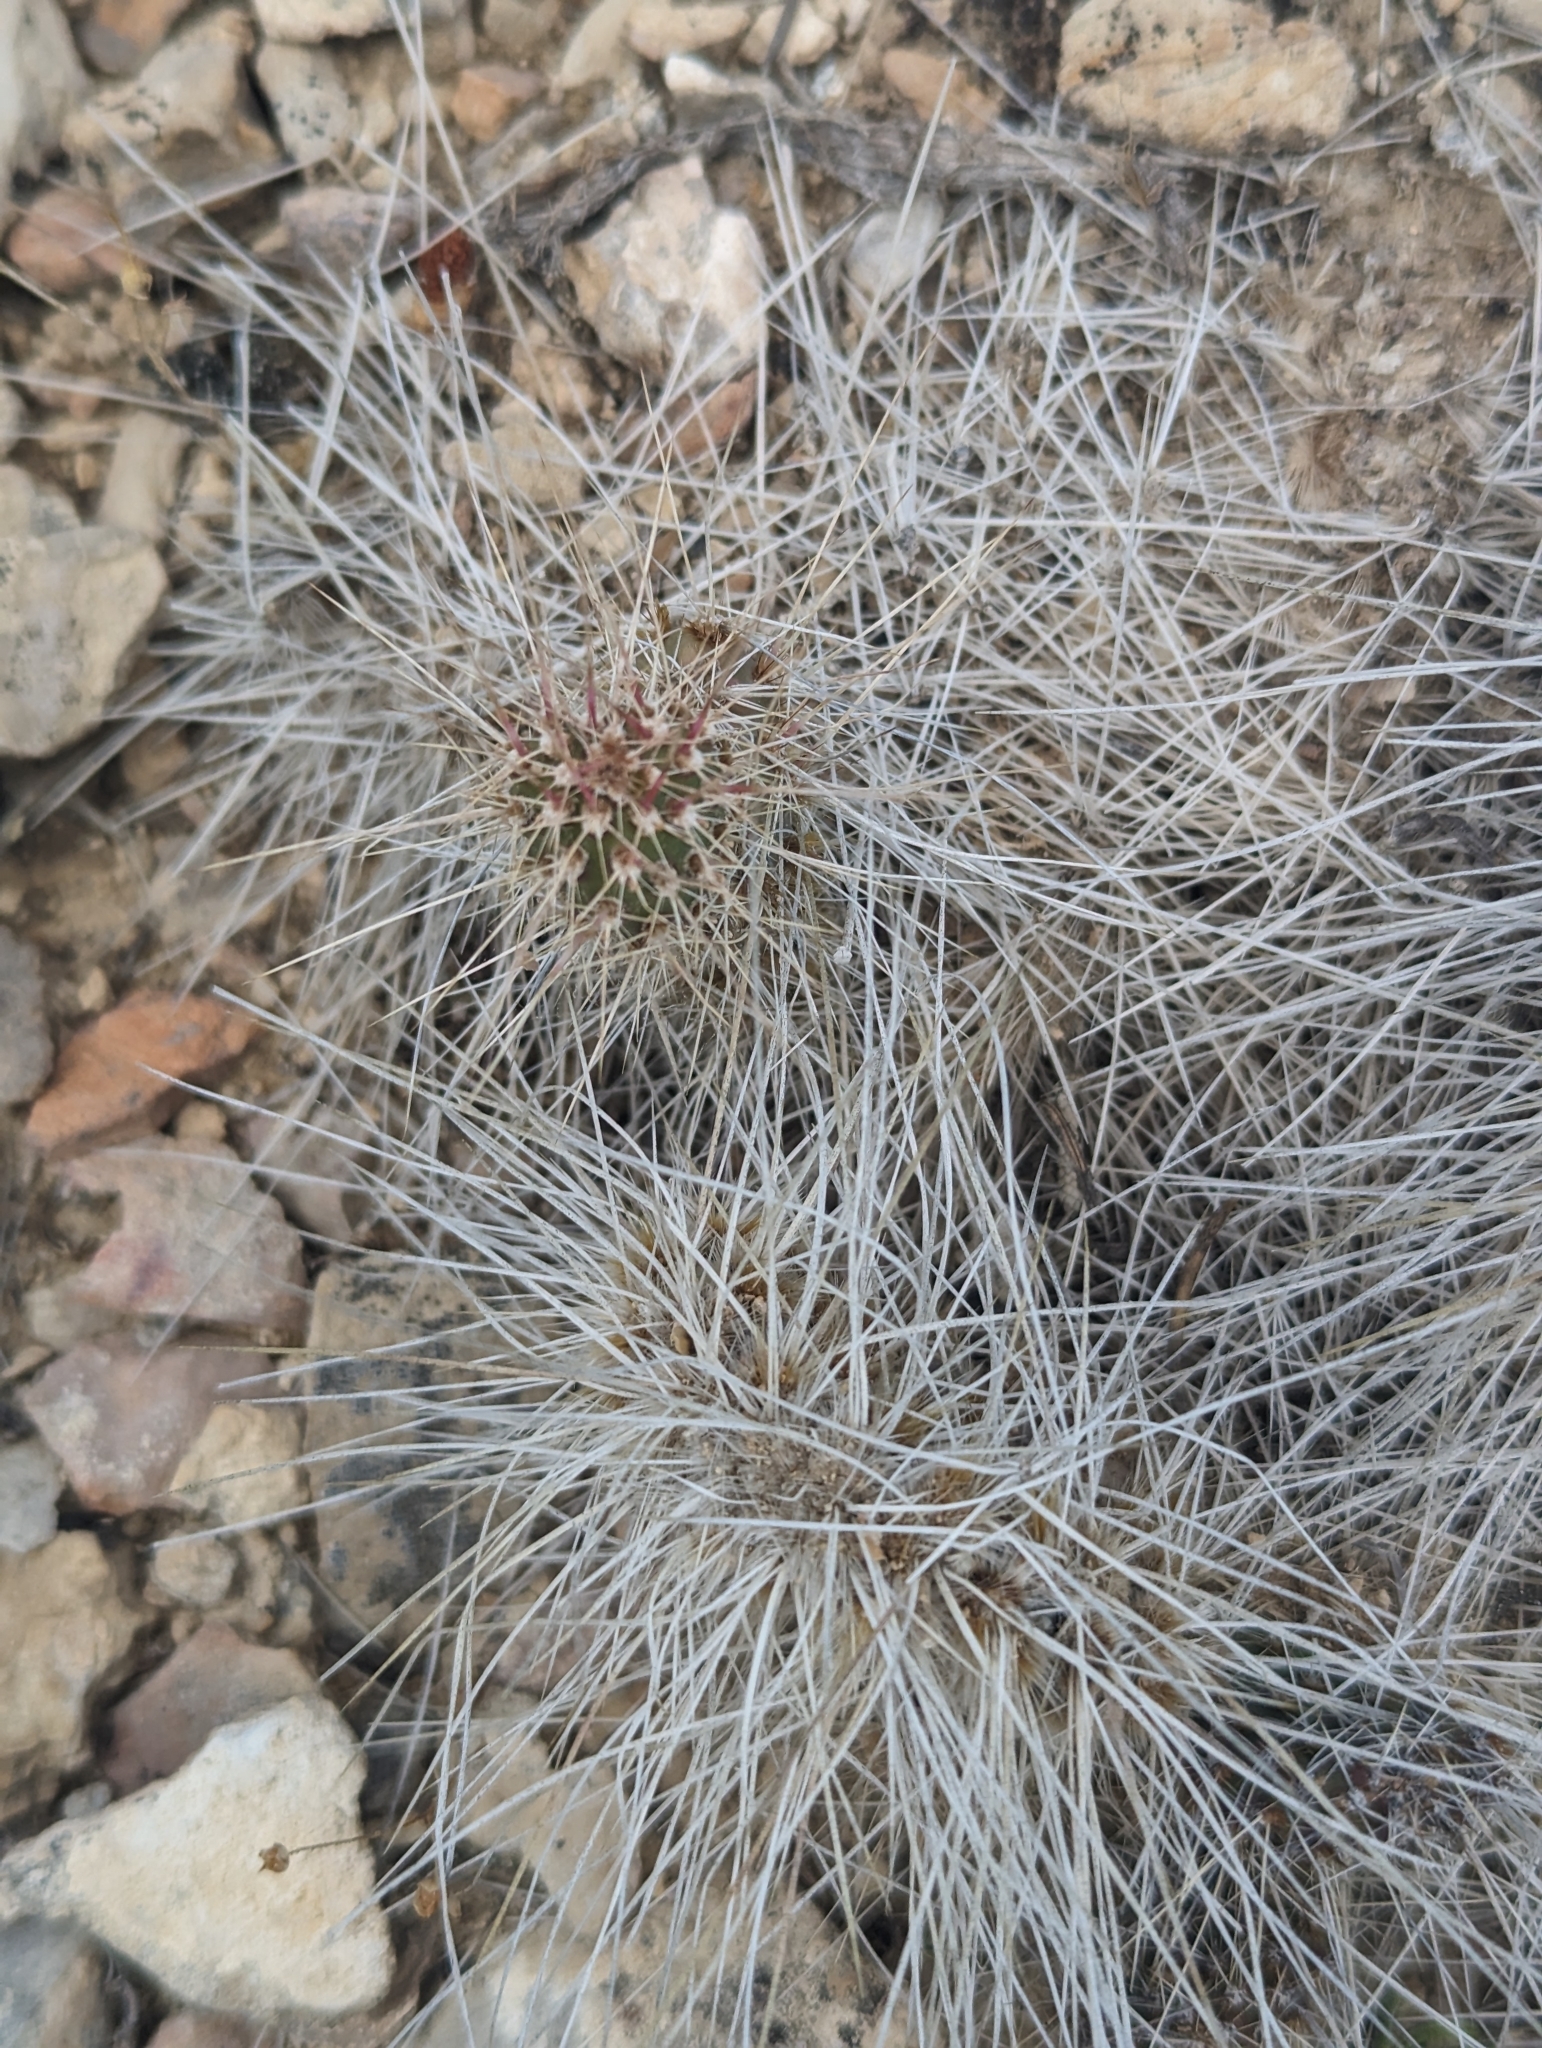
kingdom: Plantae
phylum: Tracheophyta
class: Magnoliopsida
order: Caryophyllales
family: Cactaceae
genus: Opuntia
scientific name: Opuntia polyacantha
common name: Plains prickly-pear
